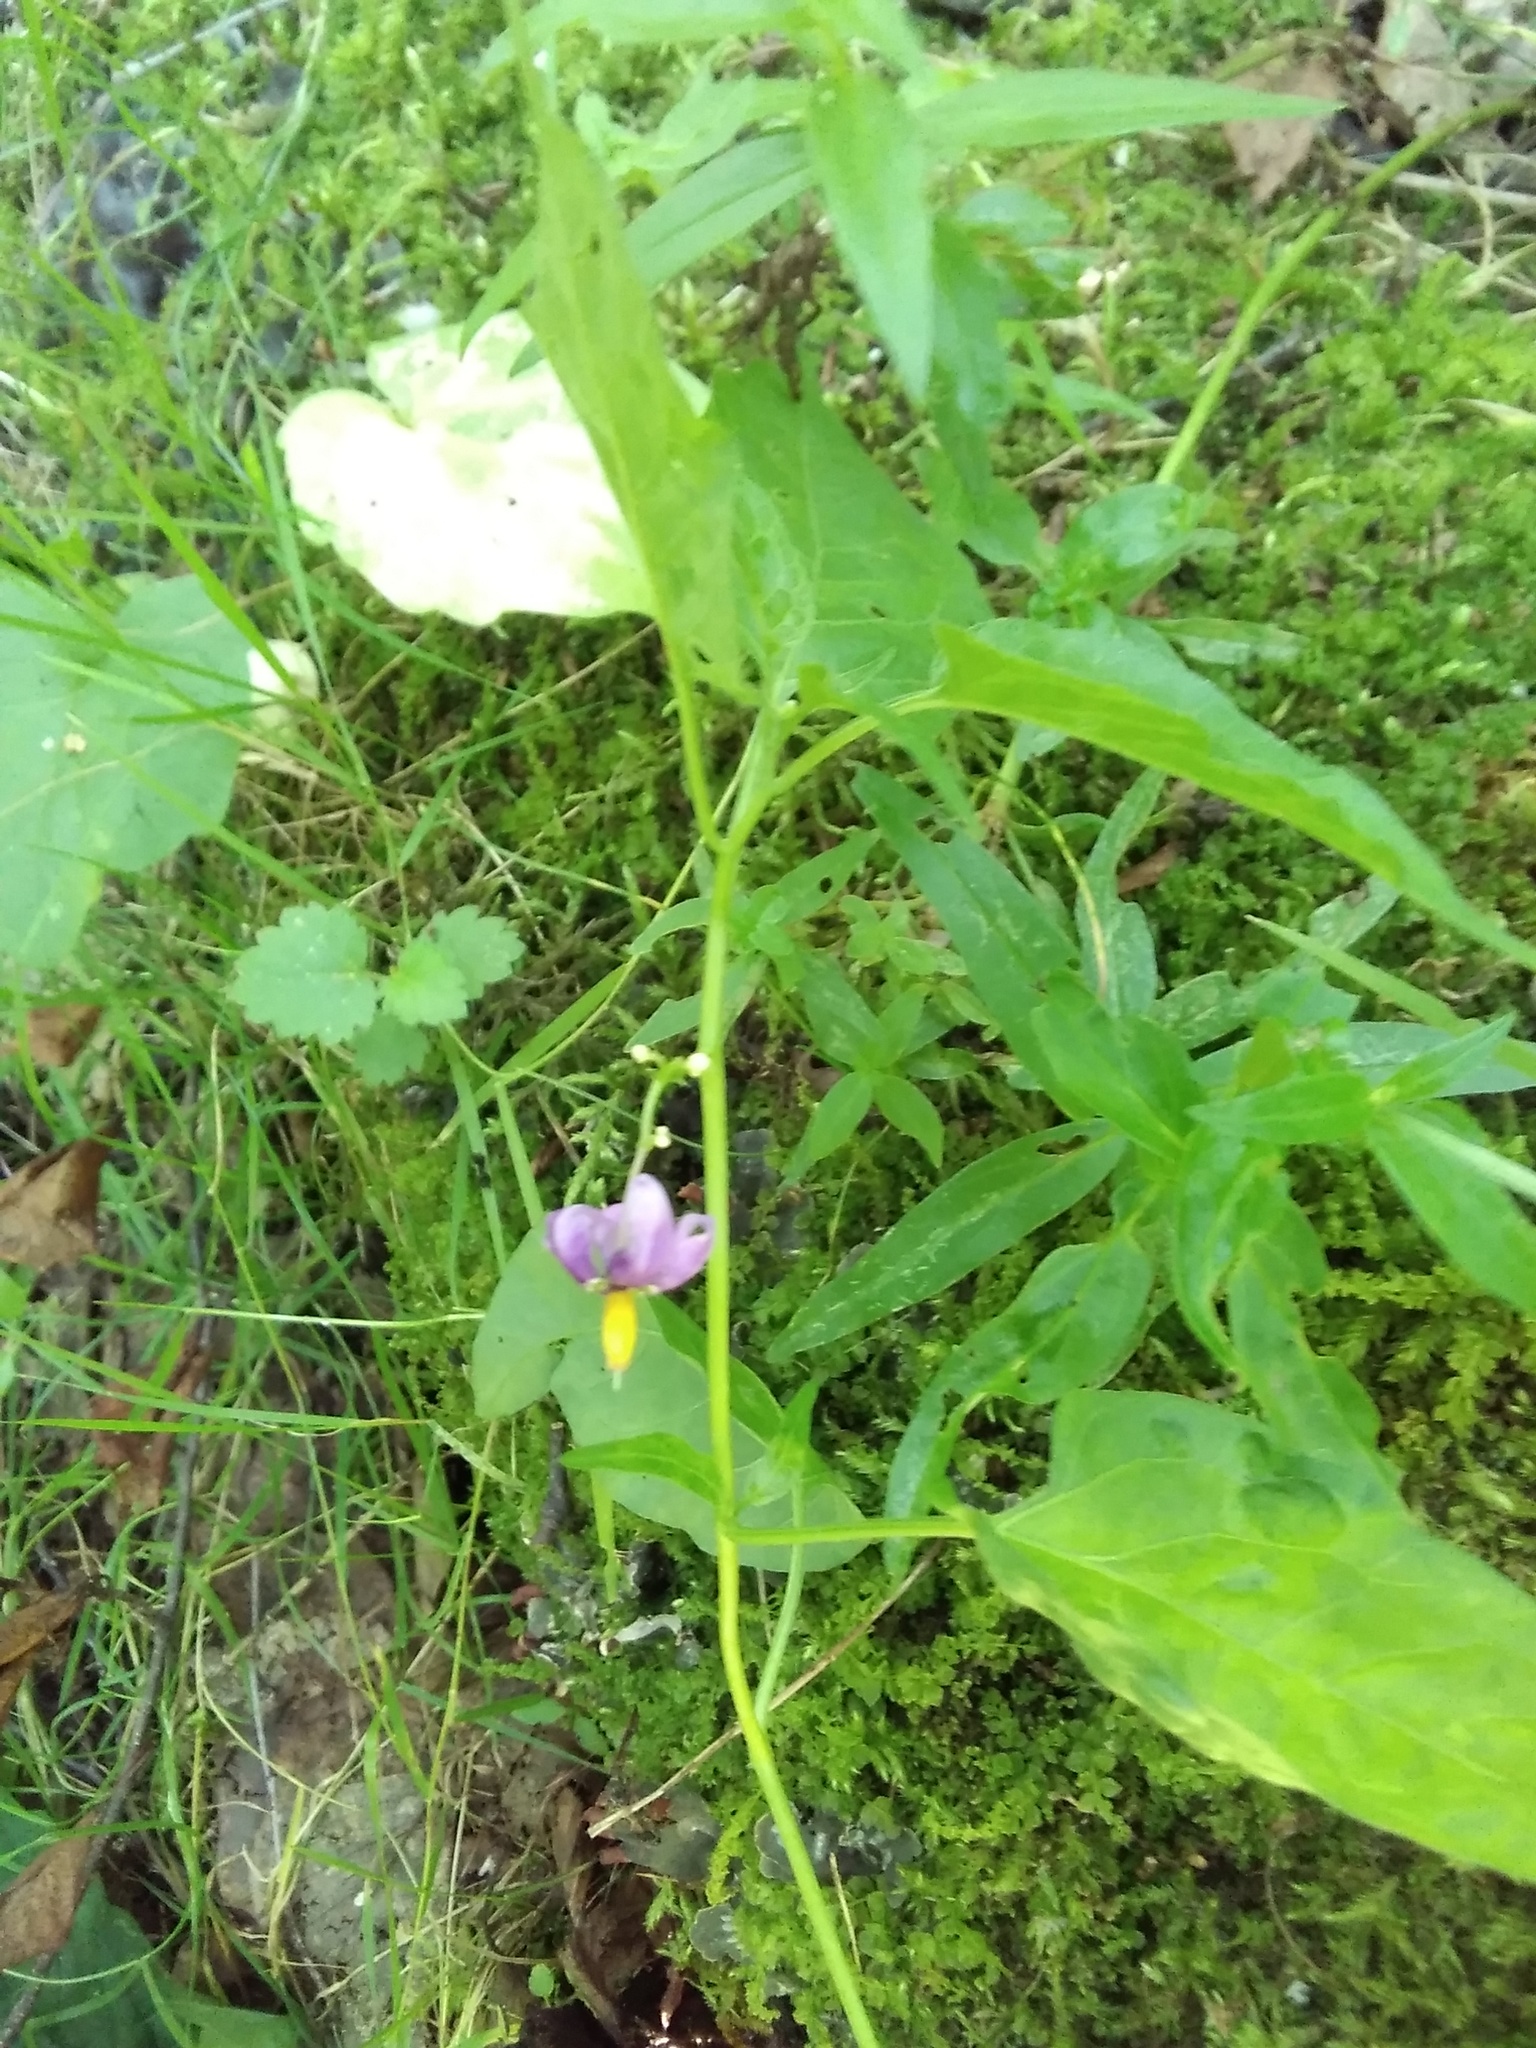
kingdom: Plantae
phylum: Tracheophyta
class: Magnoliopsida
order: Solanales
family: Solanaceae
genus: Solanum
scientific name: Solanum dulcamara
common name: Climbing nightshade
